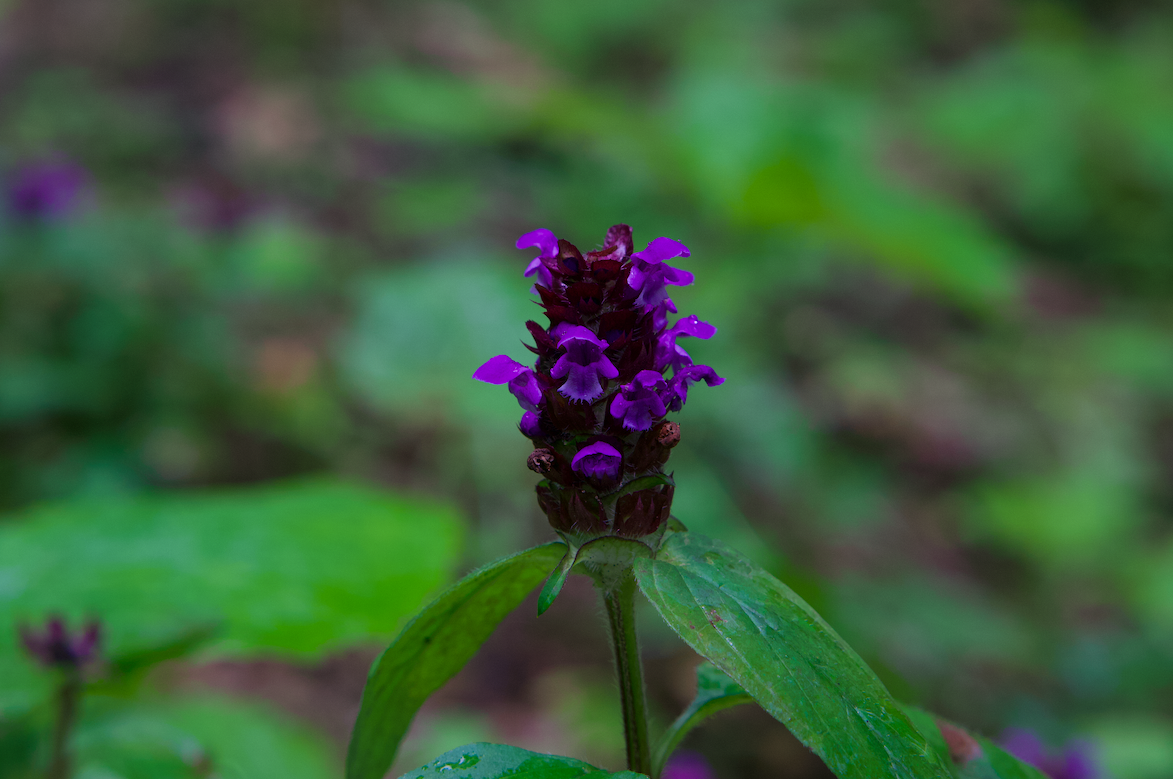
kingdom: Plantae
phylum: Tracheophyta
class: Magnoliopsida
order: Lamiales
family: Lamiaceae
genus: Prunella
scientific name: Prunella vulgaris
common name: Heal-all
